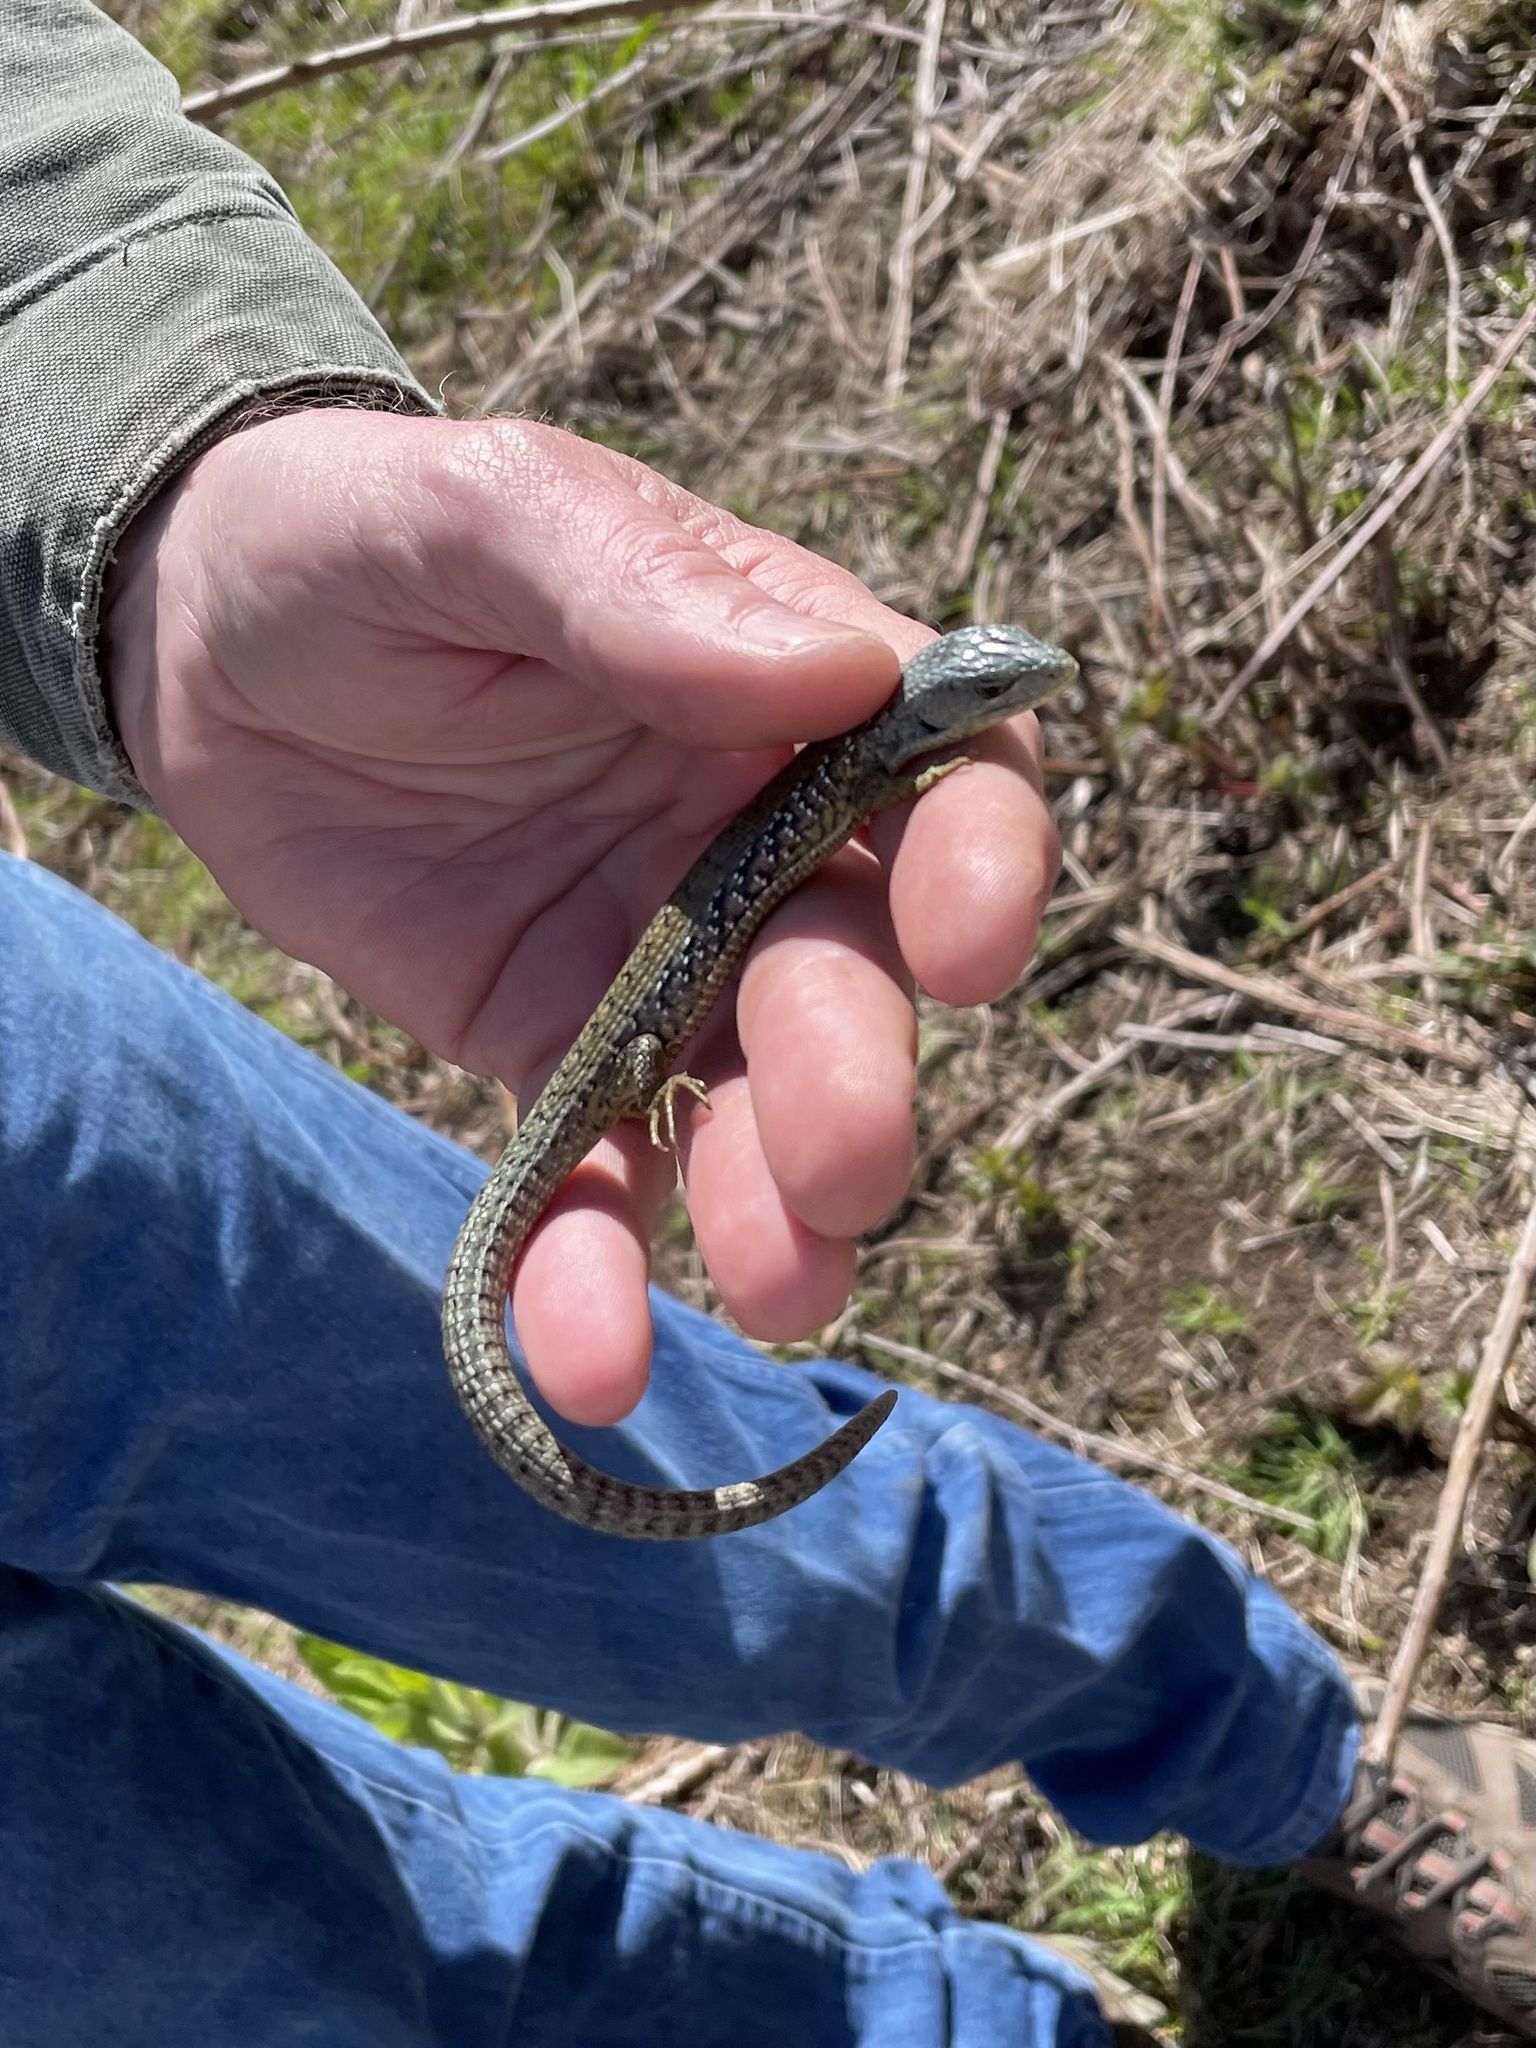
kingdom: Animalia
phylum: Chordata
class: Squamata
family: Anguidae
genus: Elgaria
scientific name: Elgaria coerulea
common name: Northern alligator lizard
